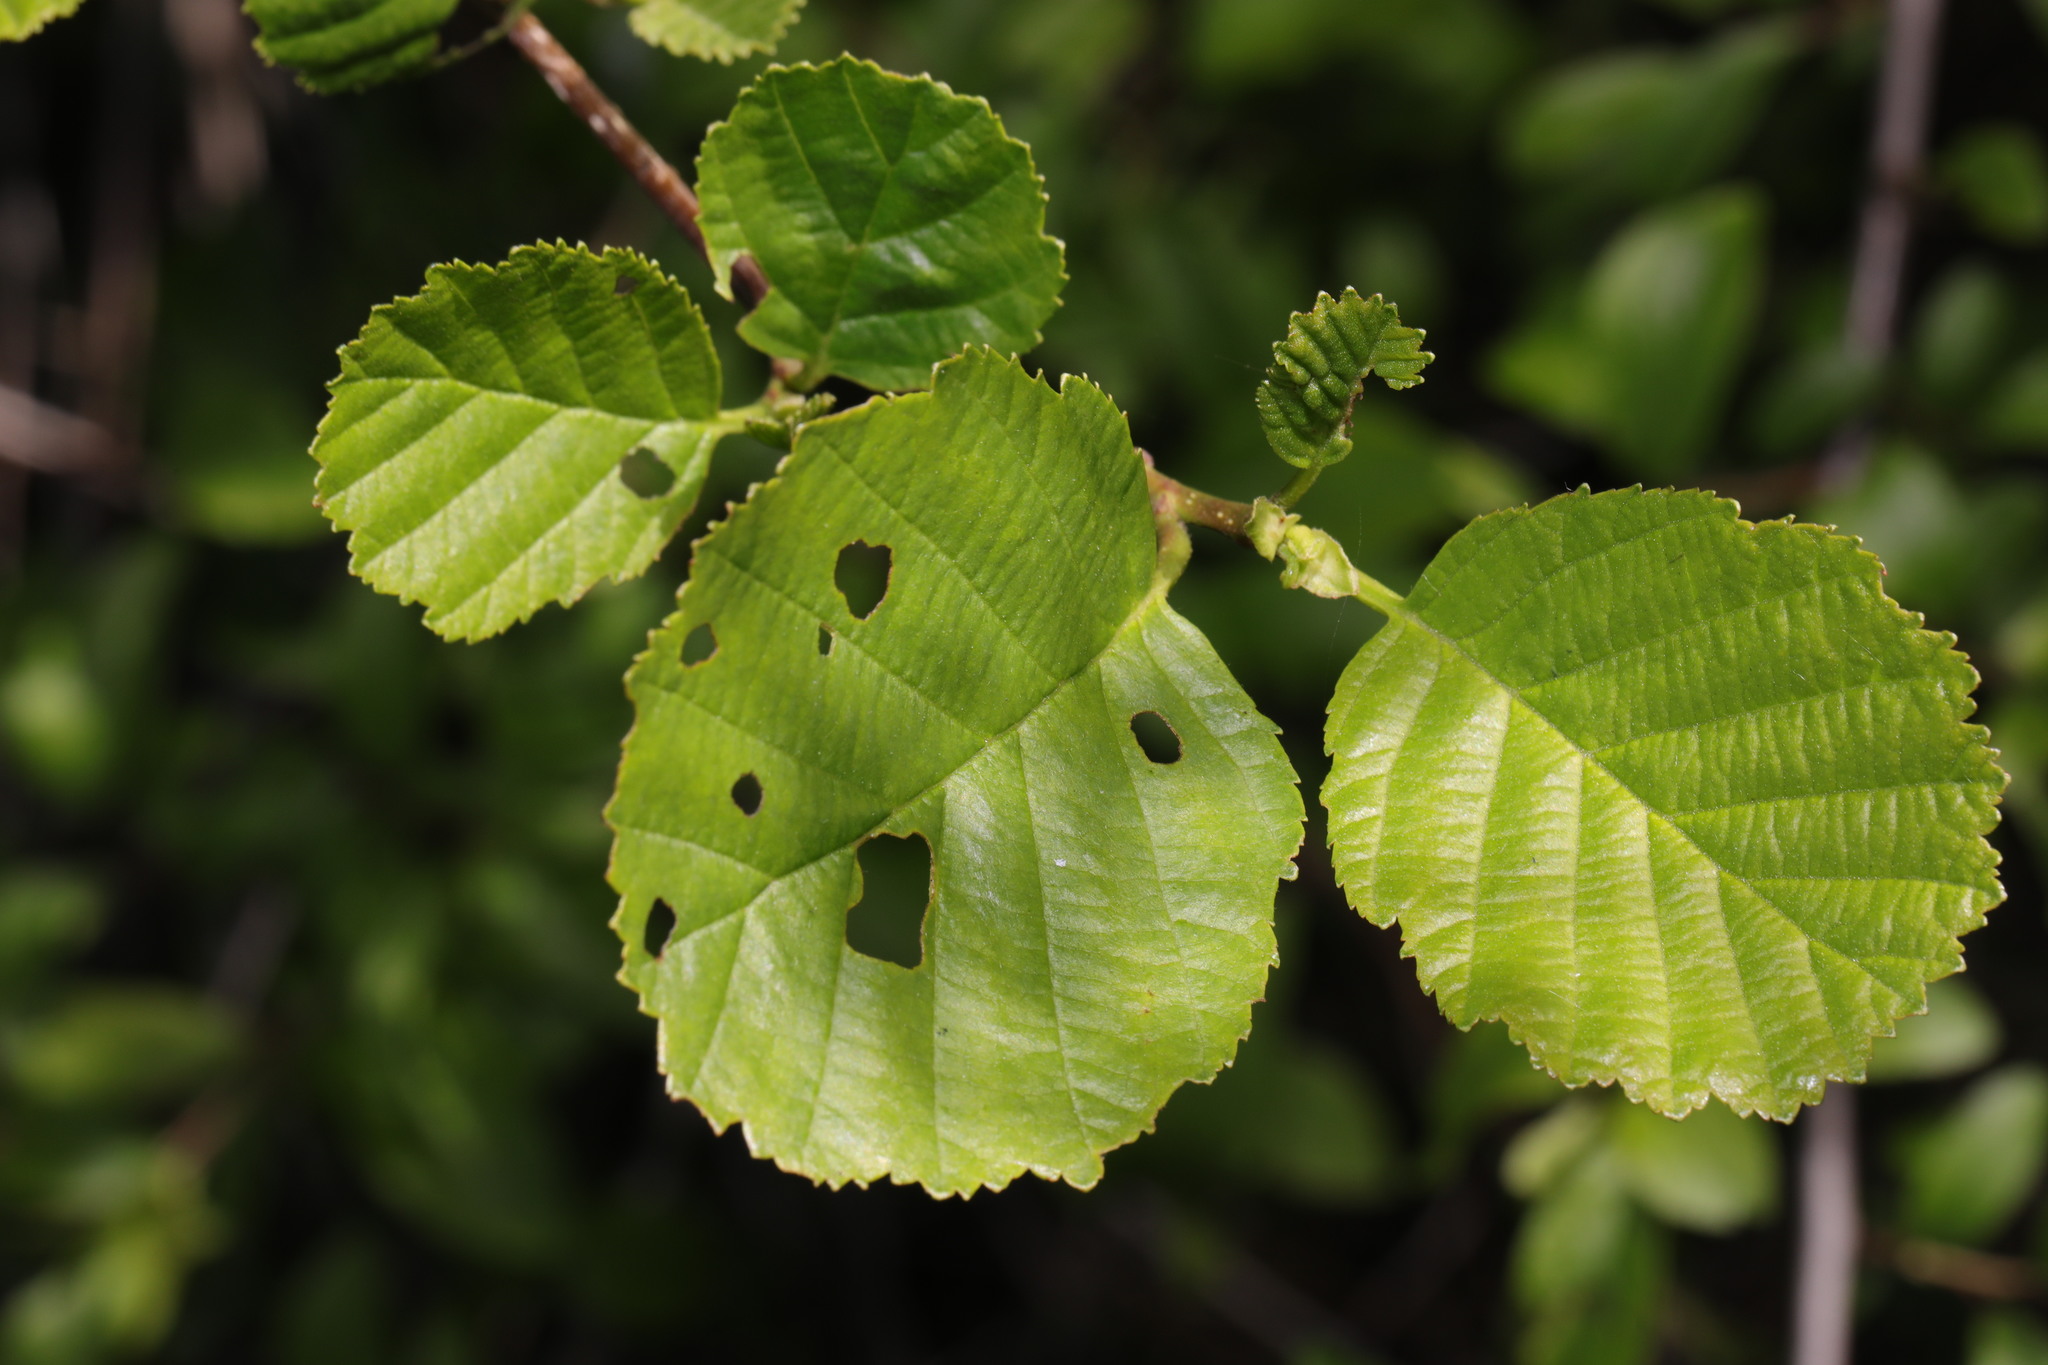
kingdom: Plantae
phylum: Tracheophyta
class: Magnoliopsida
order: Fagales
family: Betulaceae
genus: Alnus
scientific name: Alnus glutinosa
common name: Black alder
